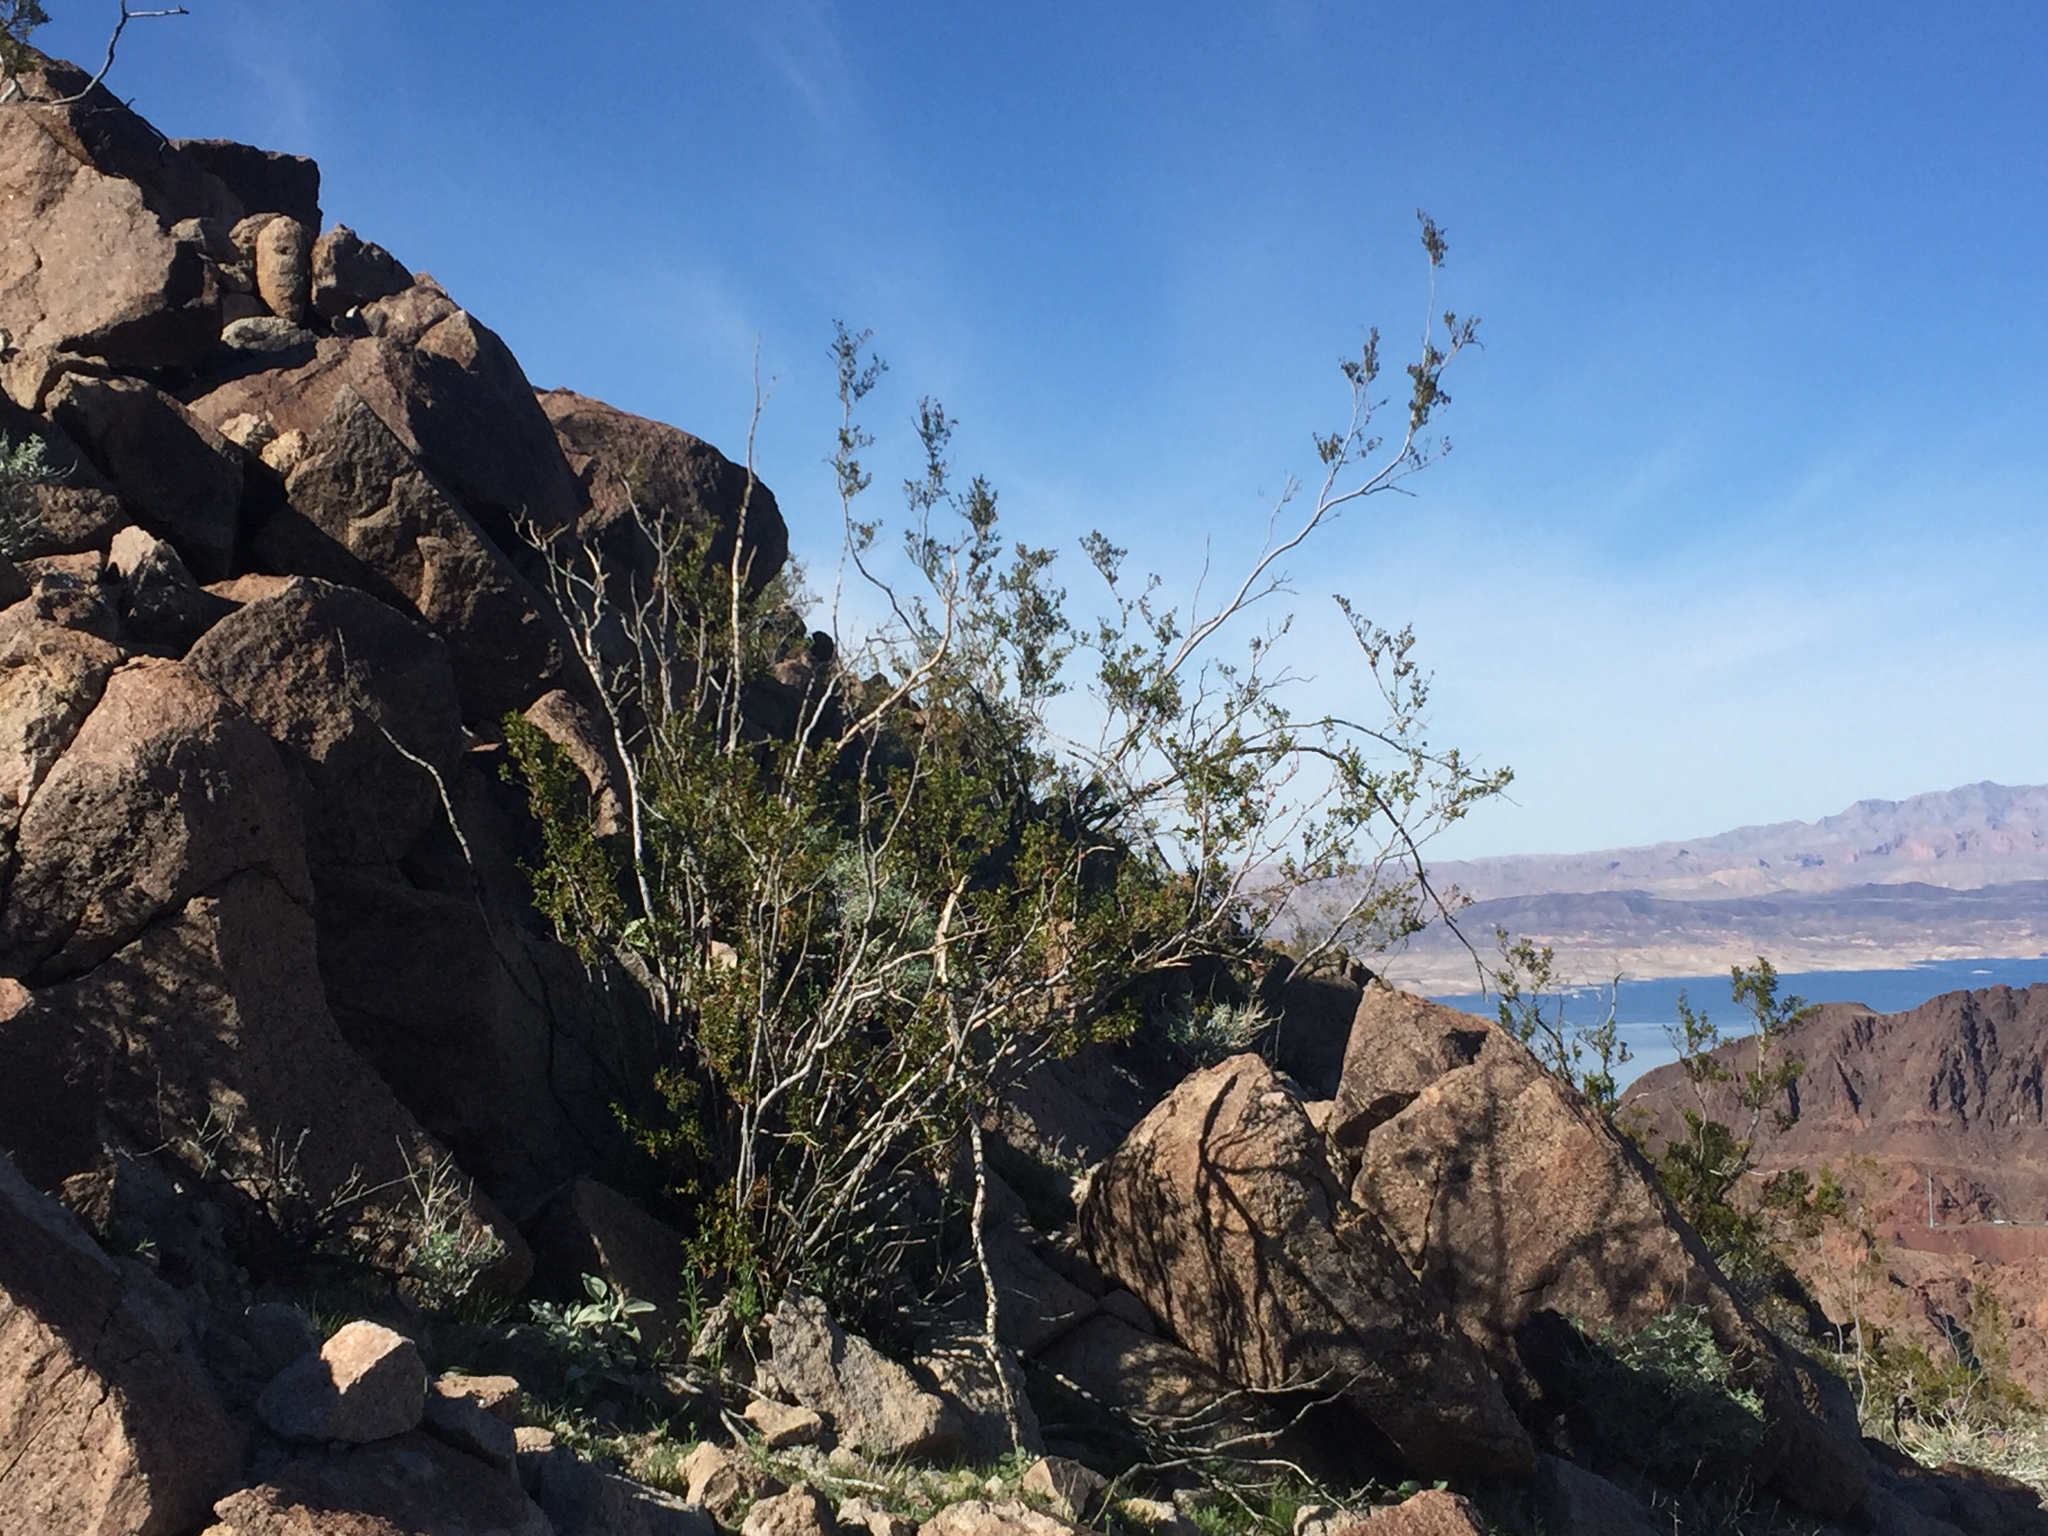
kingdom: Plantae
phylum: Tracheophyta
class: Magnoliopsida
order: Zygophyllales
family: Zygophyllaceae
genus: Larrea
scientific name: Larrea tridentata
